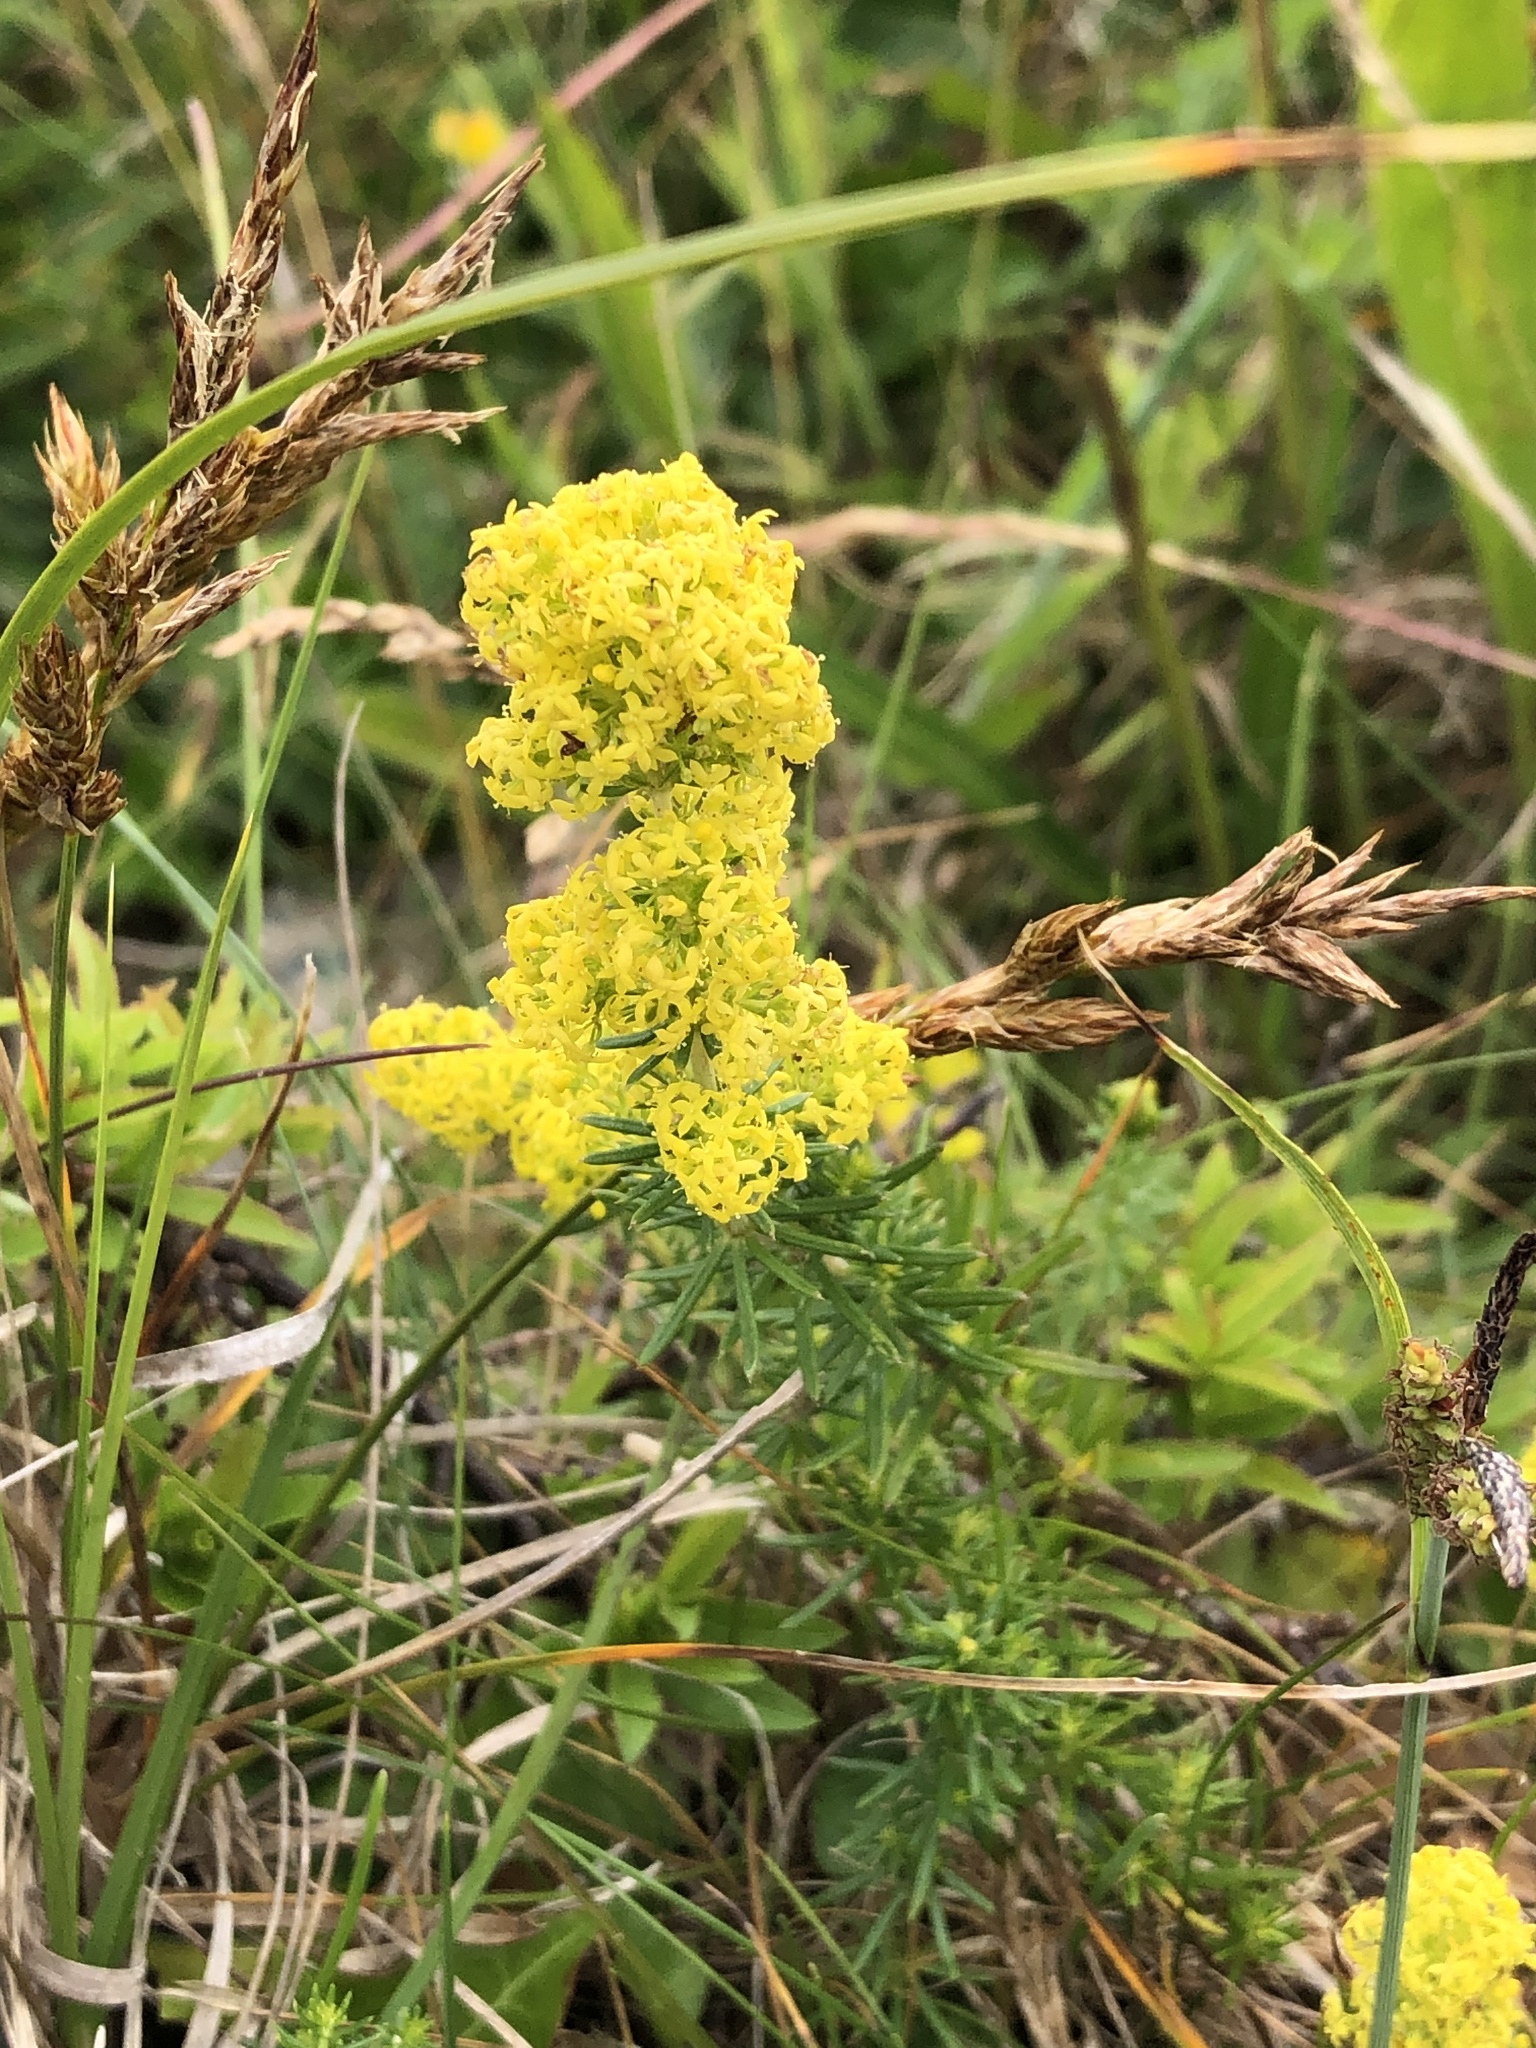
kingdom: Plantae
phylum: Tracheophyta
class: Magnoliopsida
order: Gentianales
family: Rubiaceae
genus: Galium
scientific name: Galium verum
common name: Lady's bedstraw
